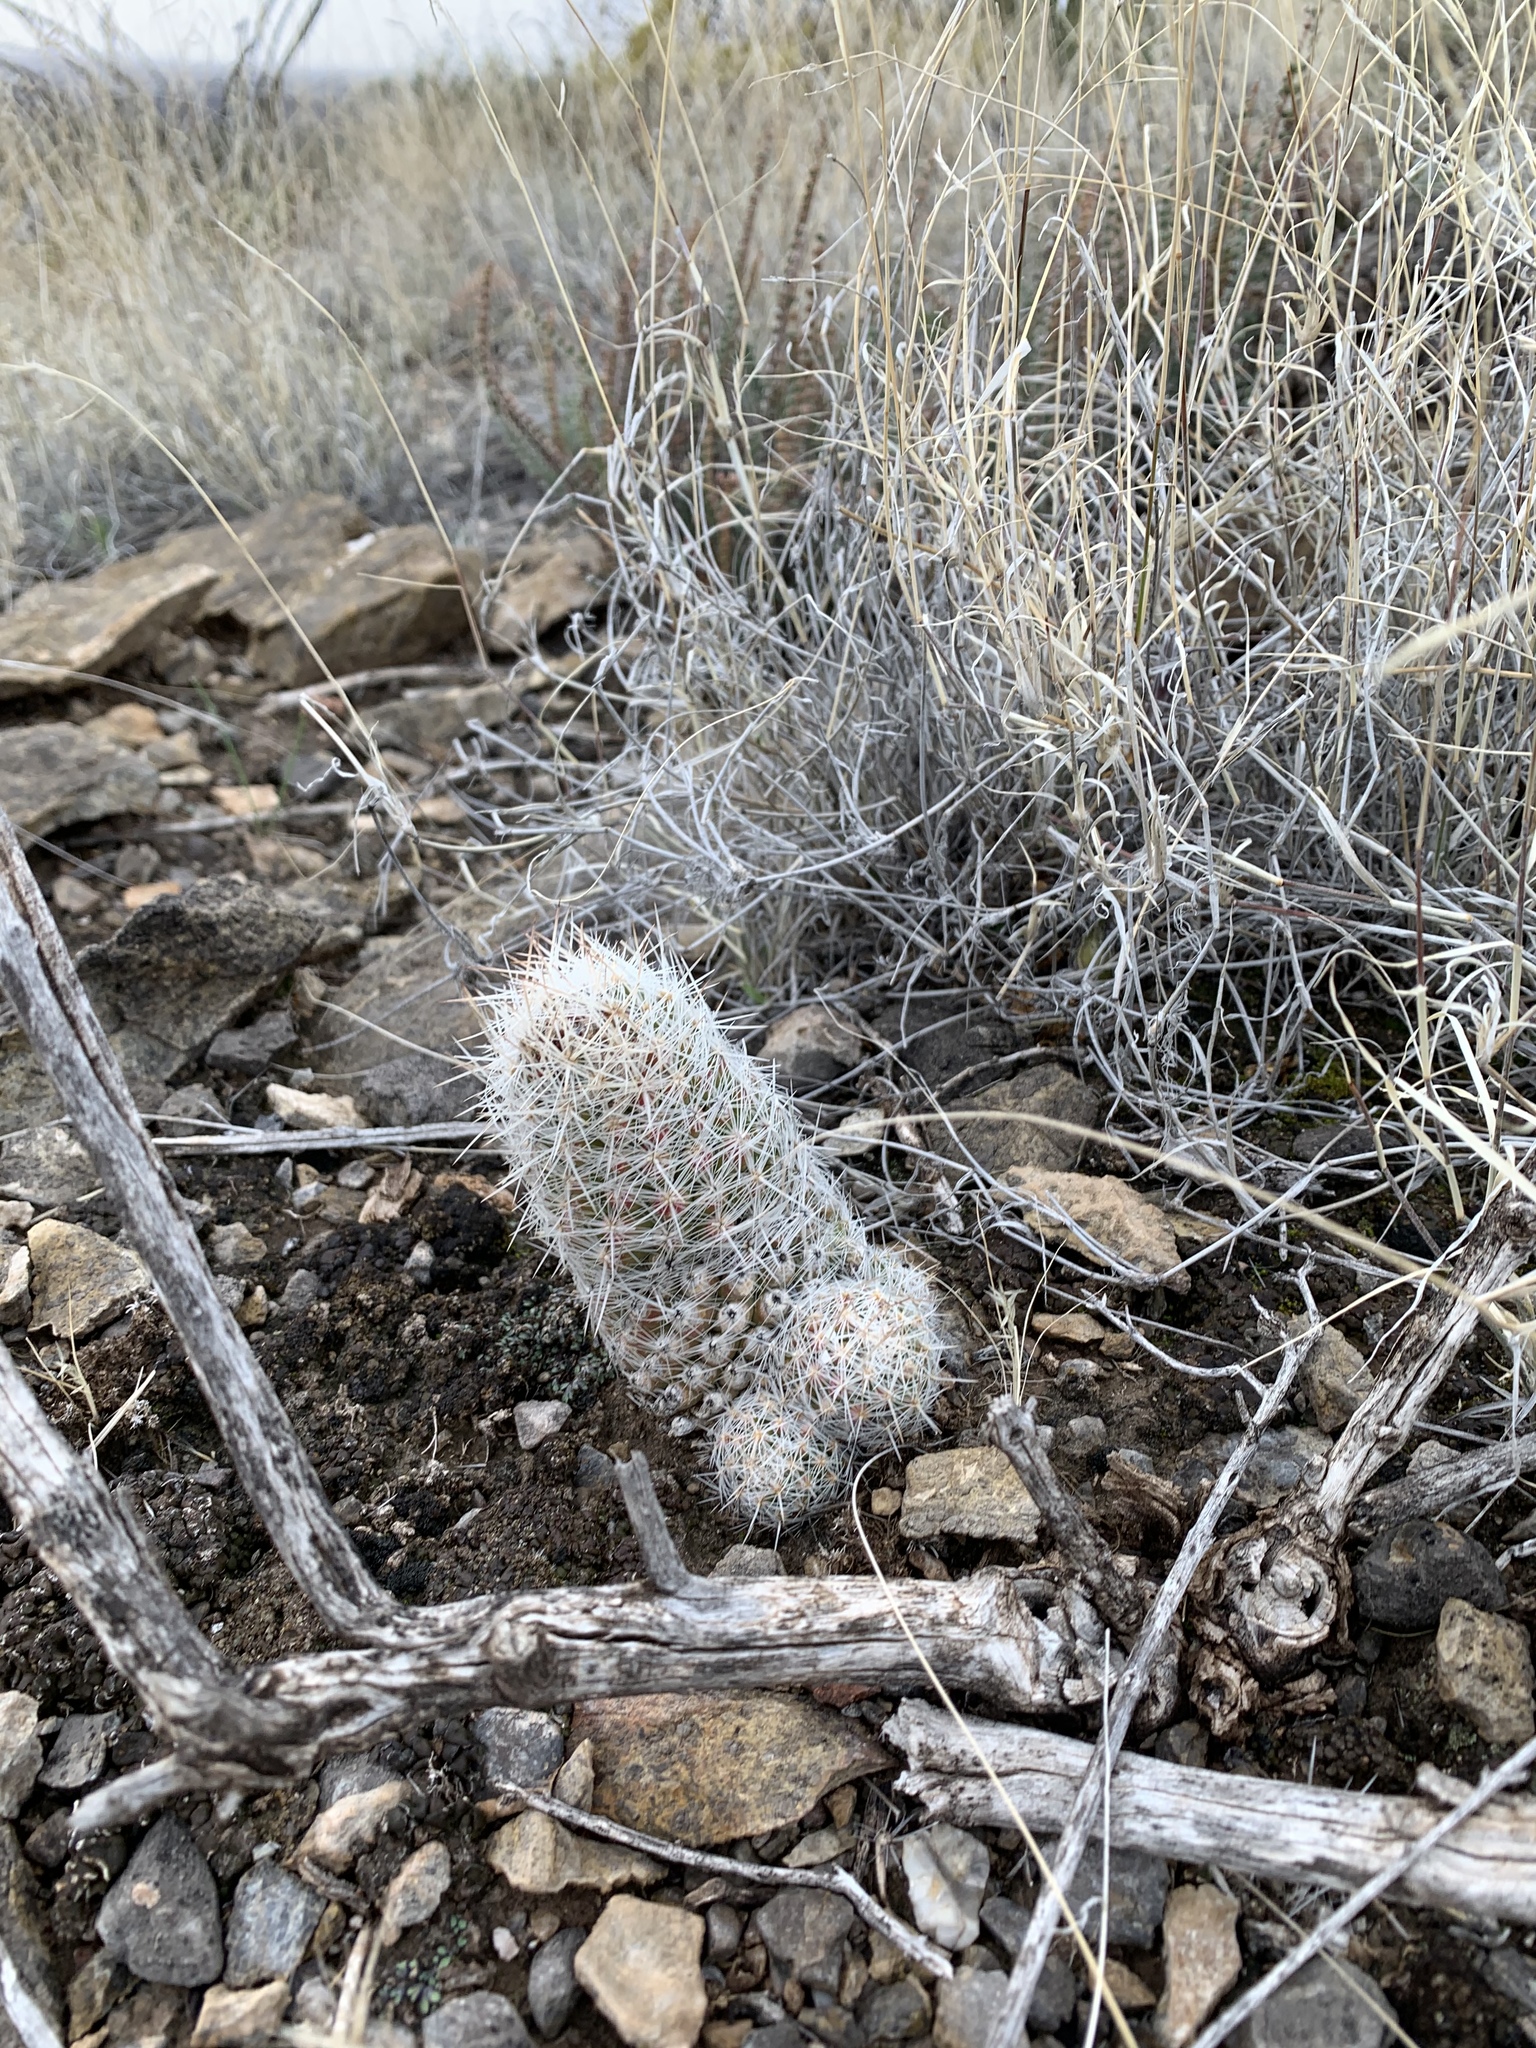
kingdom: Plantae
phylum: Tracheophyta
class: Magnoliopsida
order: Caryophyllales
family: Cactaceae
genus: Pelecyphora
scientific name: Pelecyphora tuberculosa
